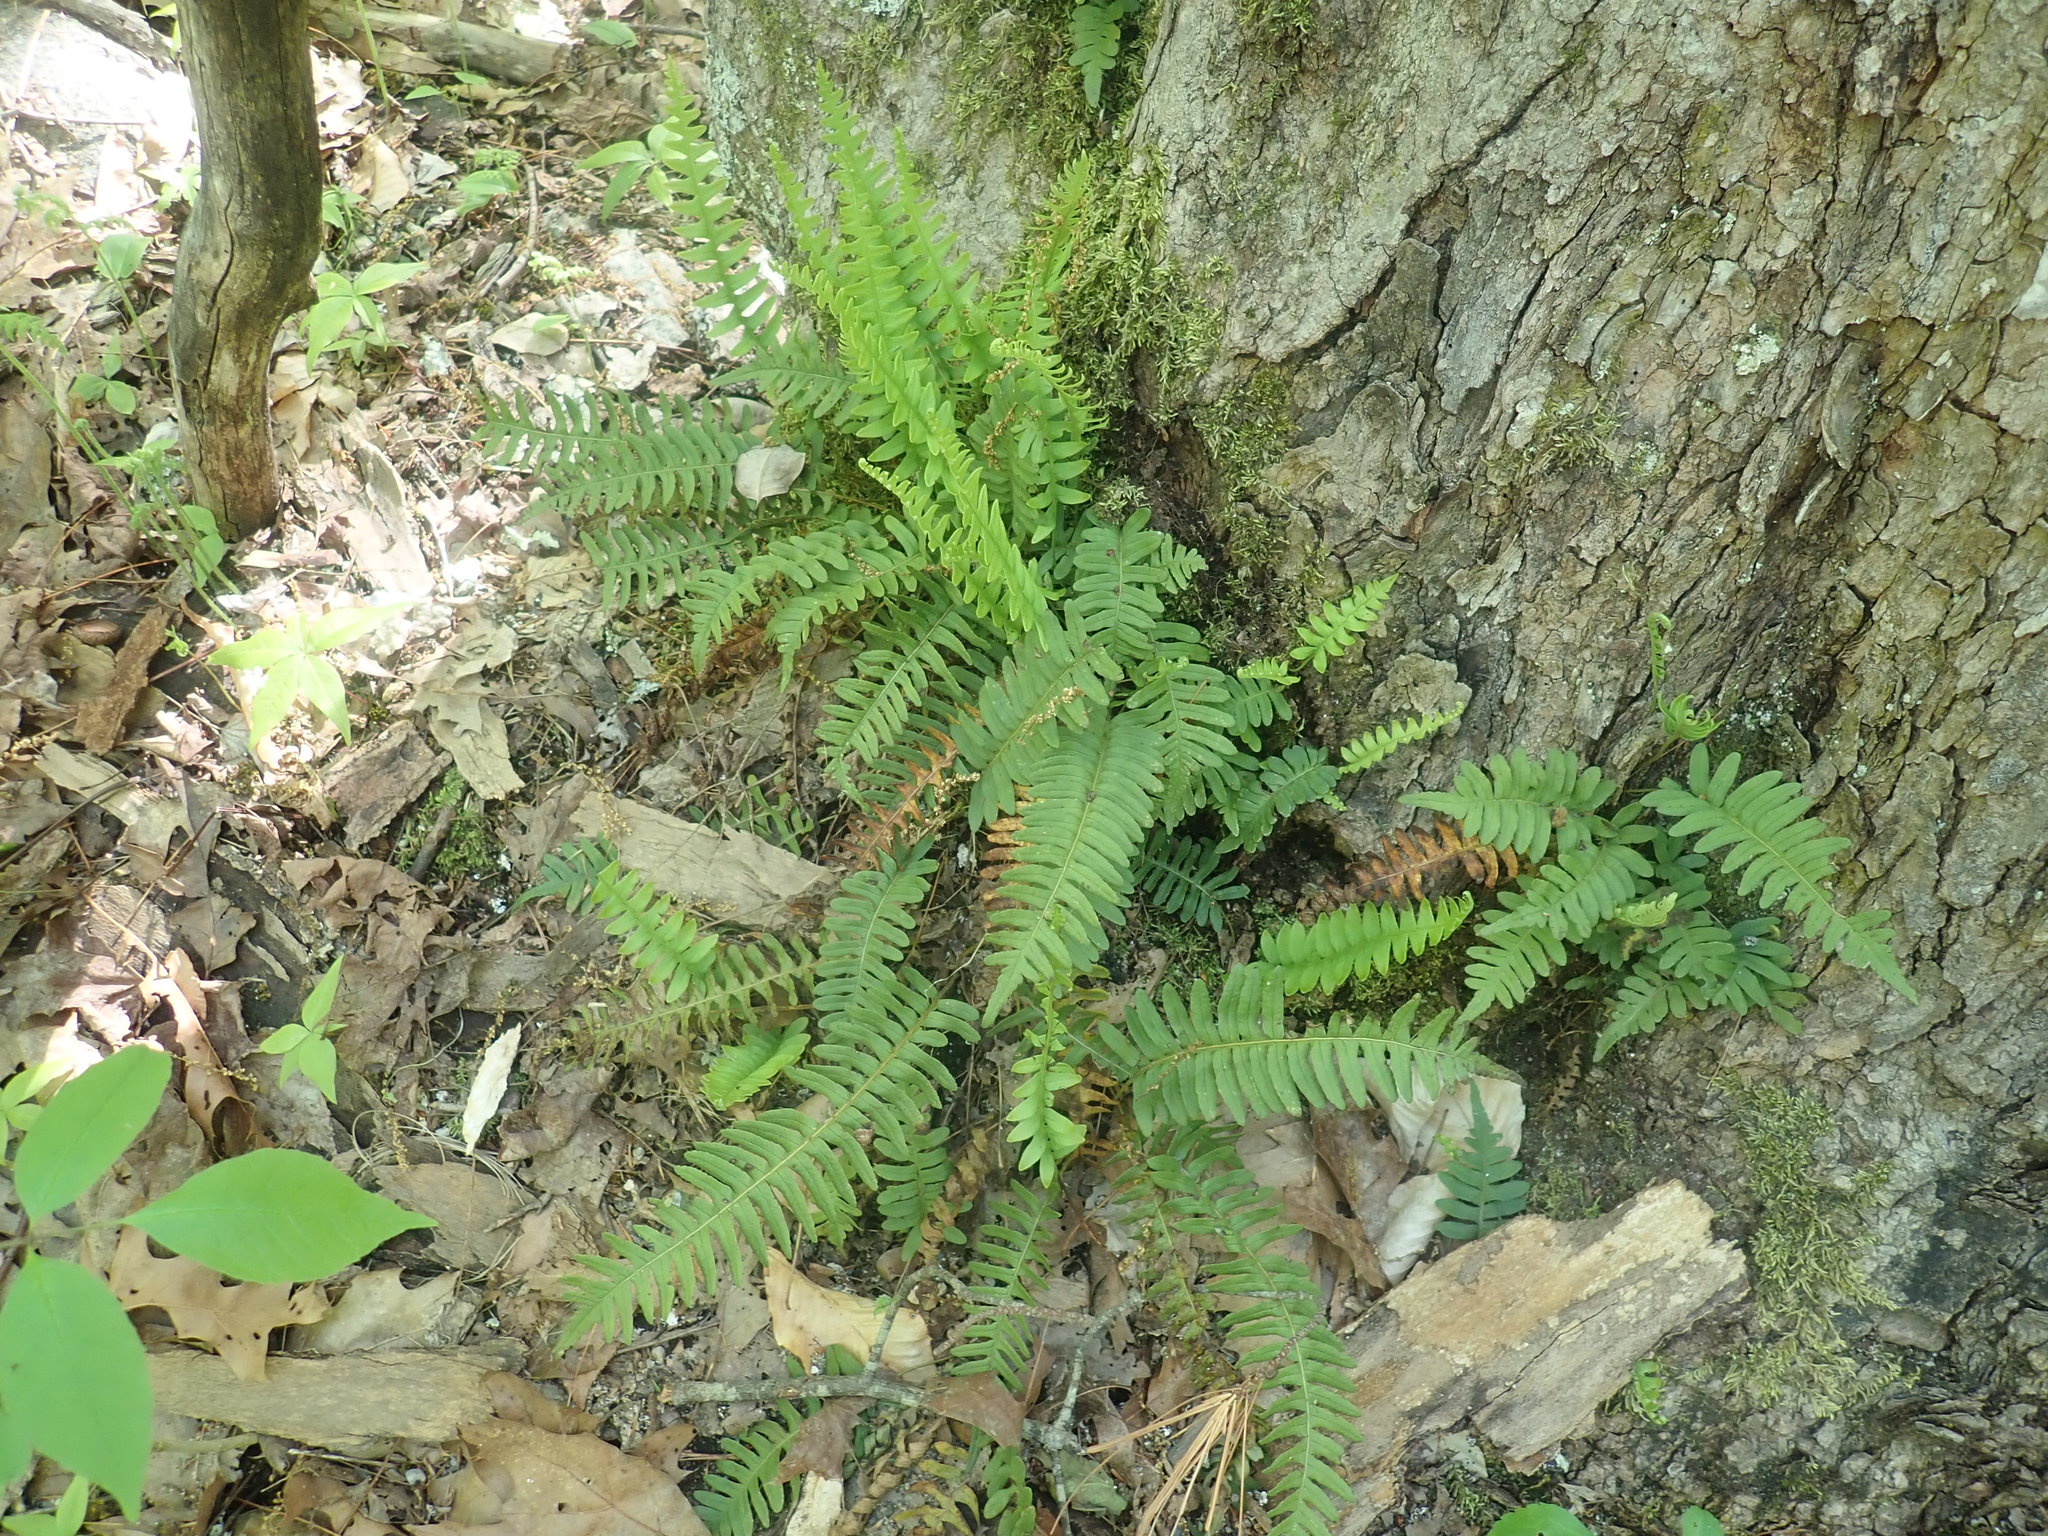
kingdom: Plantae
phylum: Tracheophyta
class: Polypodiopsida
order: Polypodiales
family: Polypodiaceae
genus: Polypodium
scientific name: Polypodium
